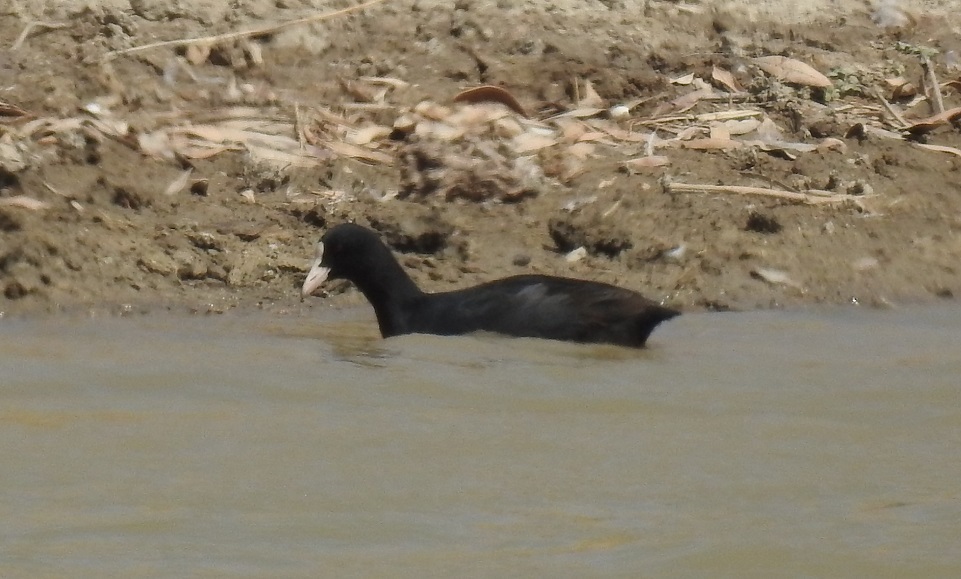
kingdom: Animalia
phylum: Chordata
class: Aves
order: Gruiformes
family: Rallidae
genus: Fulica
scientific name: Fulica atra
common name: Eurasian coot
